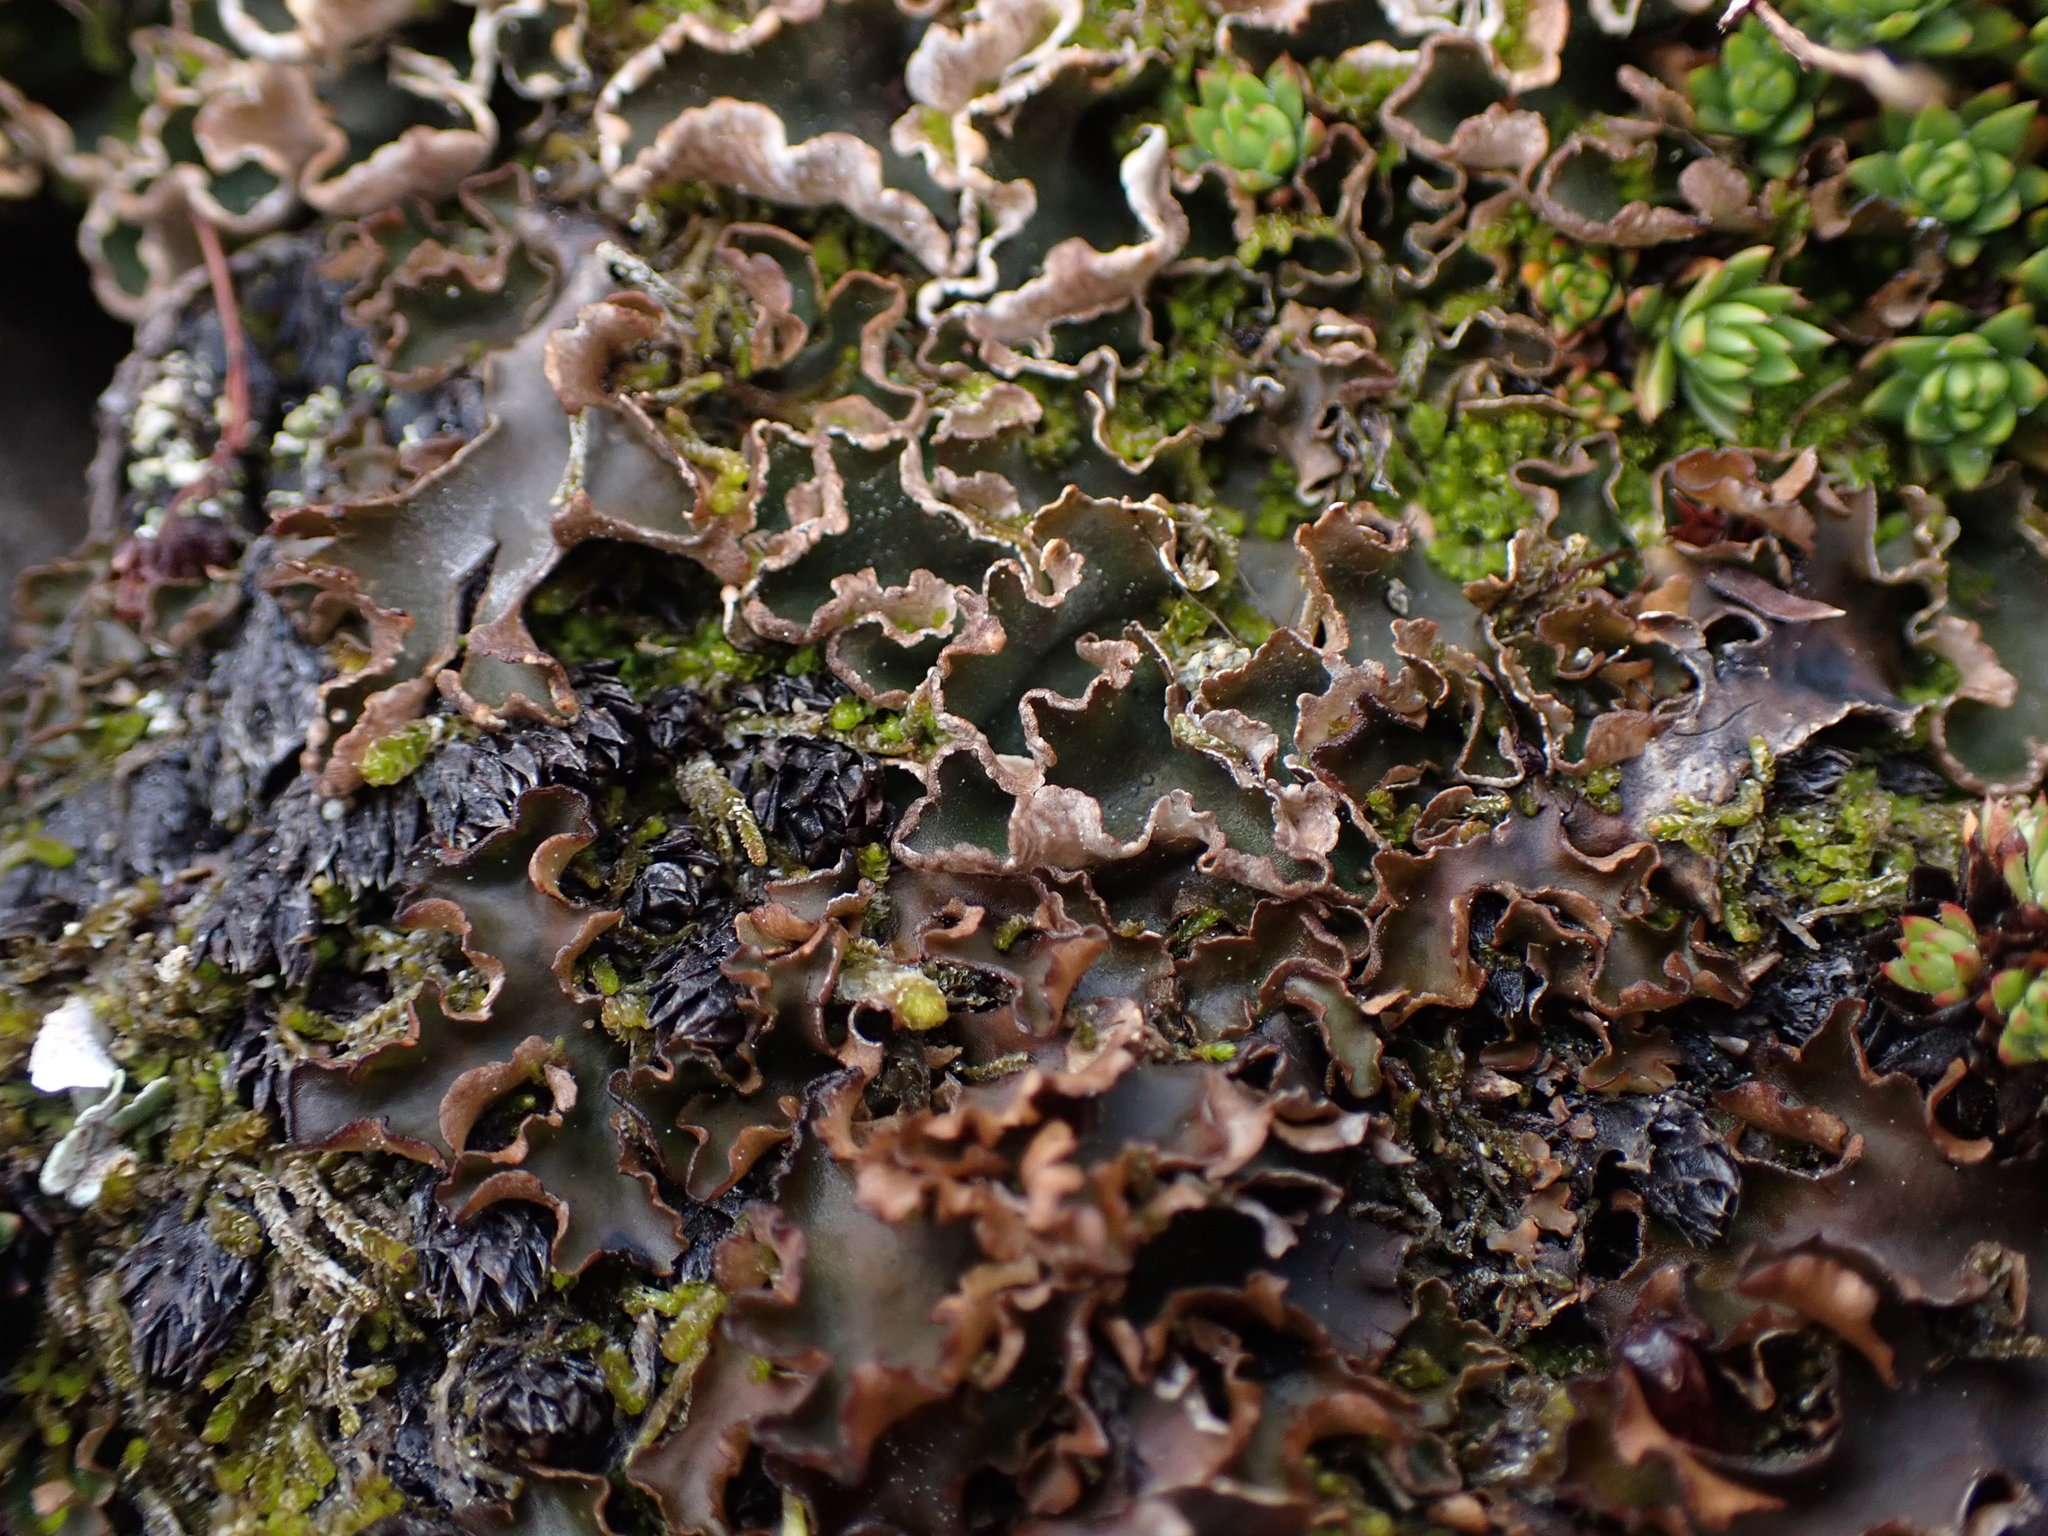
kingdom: Fungi
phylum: Ascomycota
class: Lecanoromycetes
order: Peltigerales
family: Peltigeraceae
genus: Peltigera
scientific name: Peltigera malacea
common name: Matt felt lichen
